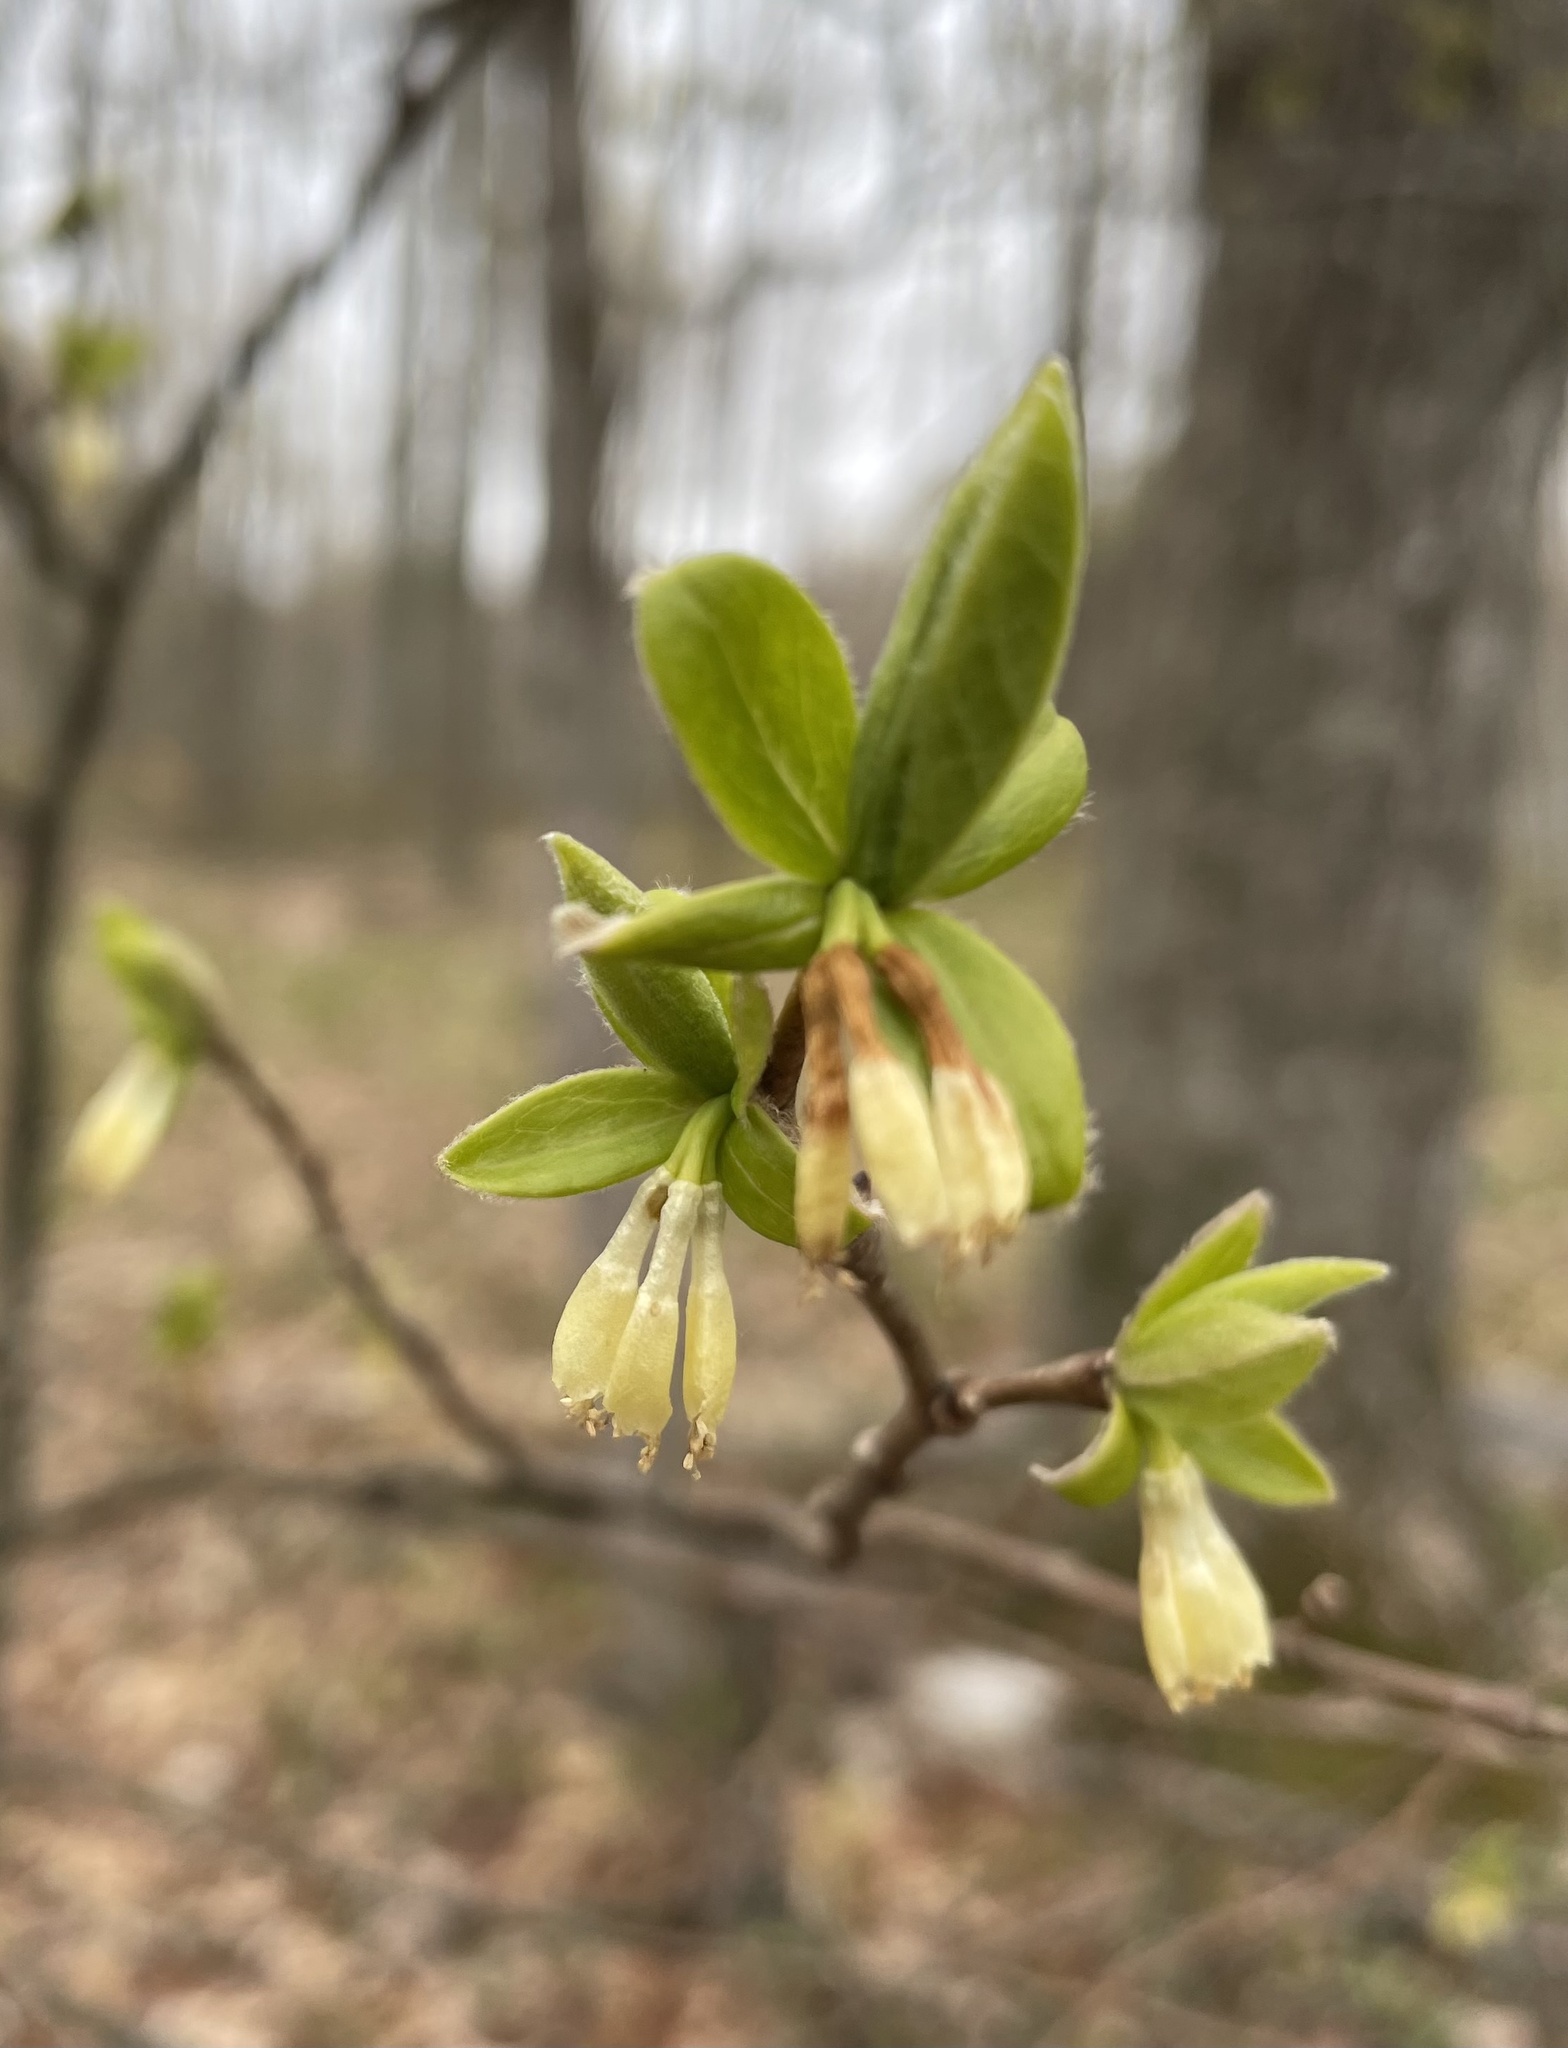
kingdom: Plantae
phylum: Tracheophyta
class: Magnoliopsida
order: Malvales
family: Thymelaeaceae
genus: Dirca
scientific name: Dirca palustris
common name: Leatherwood
